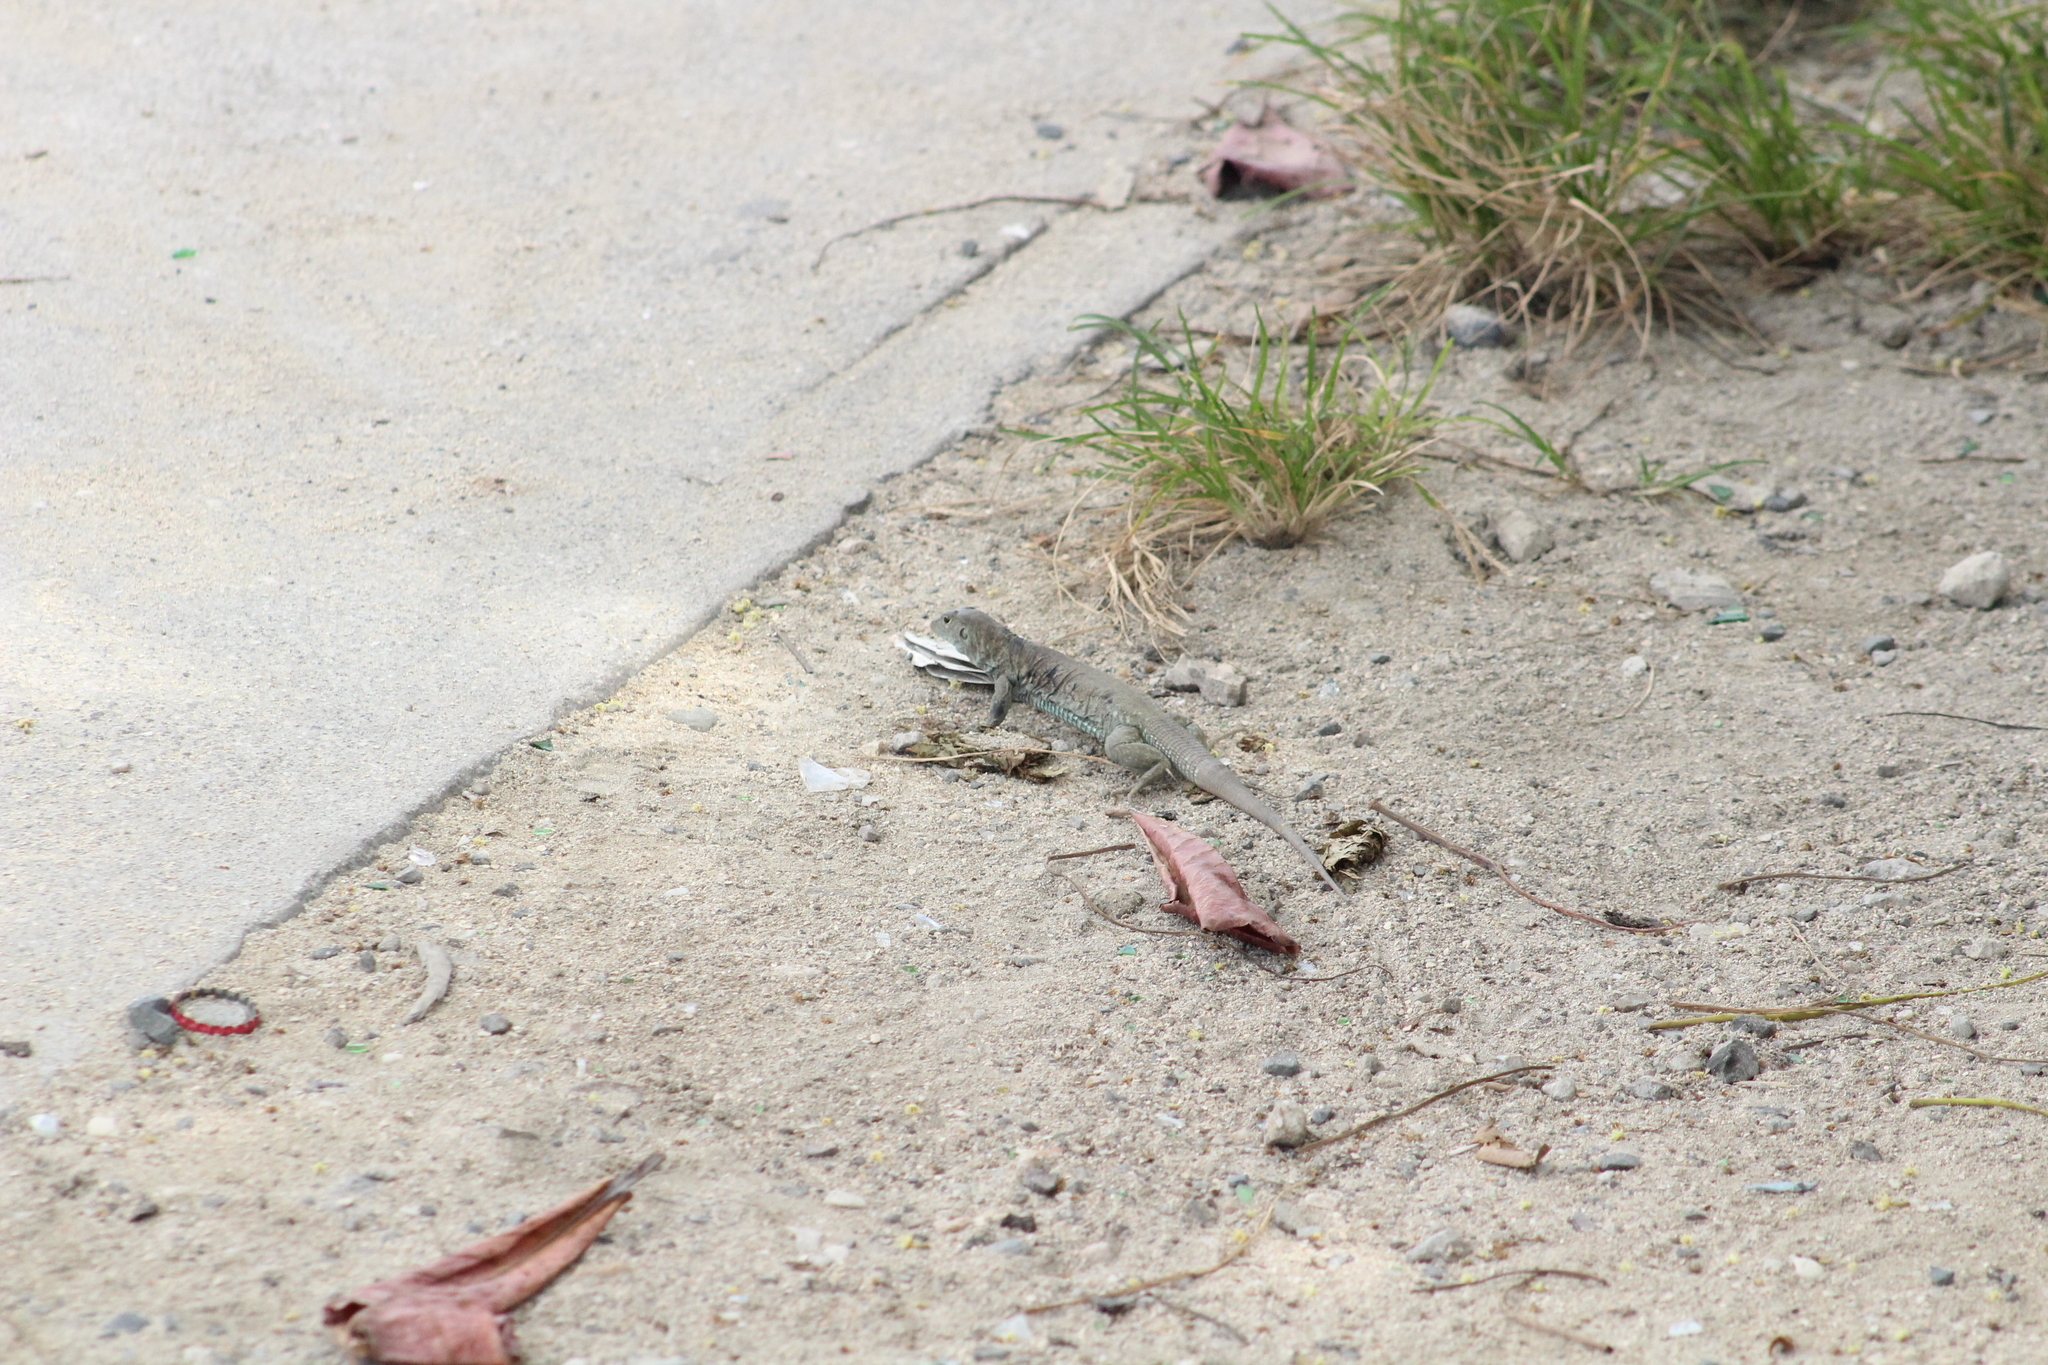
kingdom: Animalia
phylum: Chordata
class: Squamata
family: Teiidae
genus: Pholidoscelis
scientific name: Pholidoscelis plei
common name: Anguilla bank ameiva
